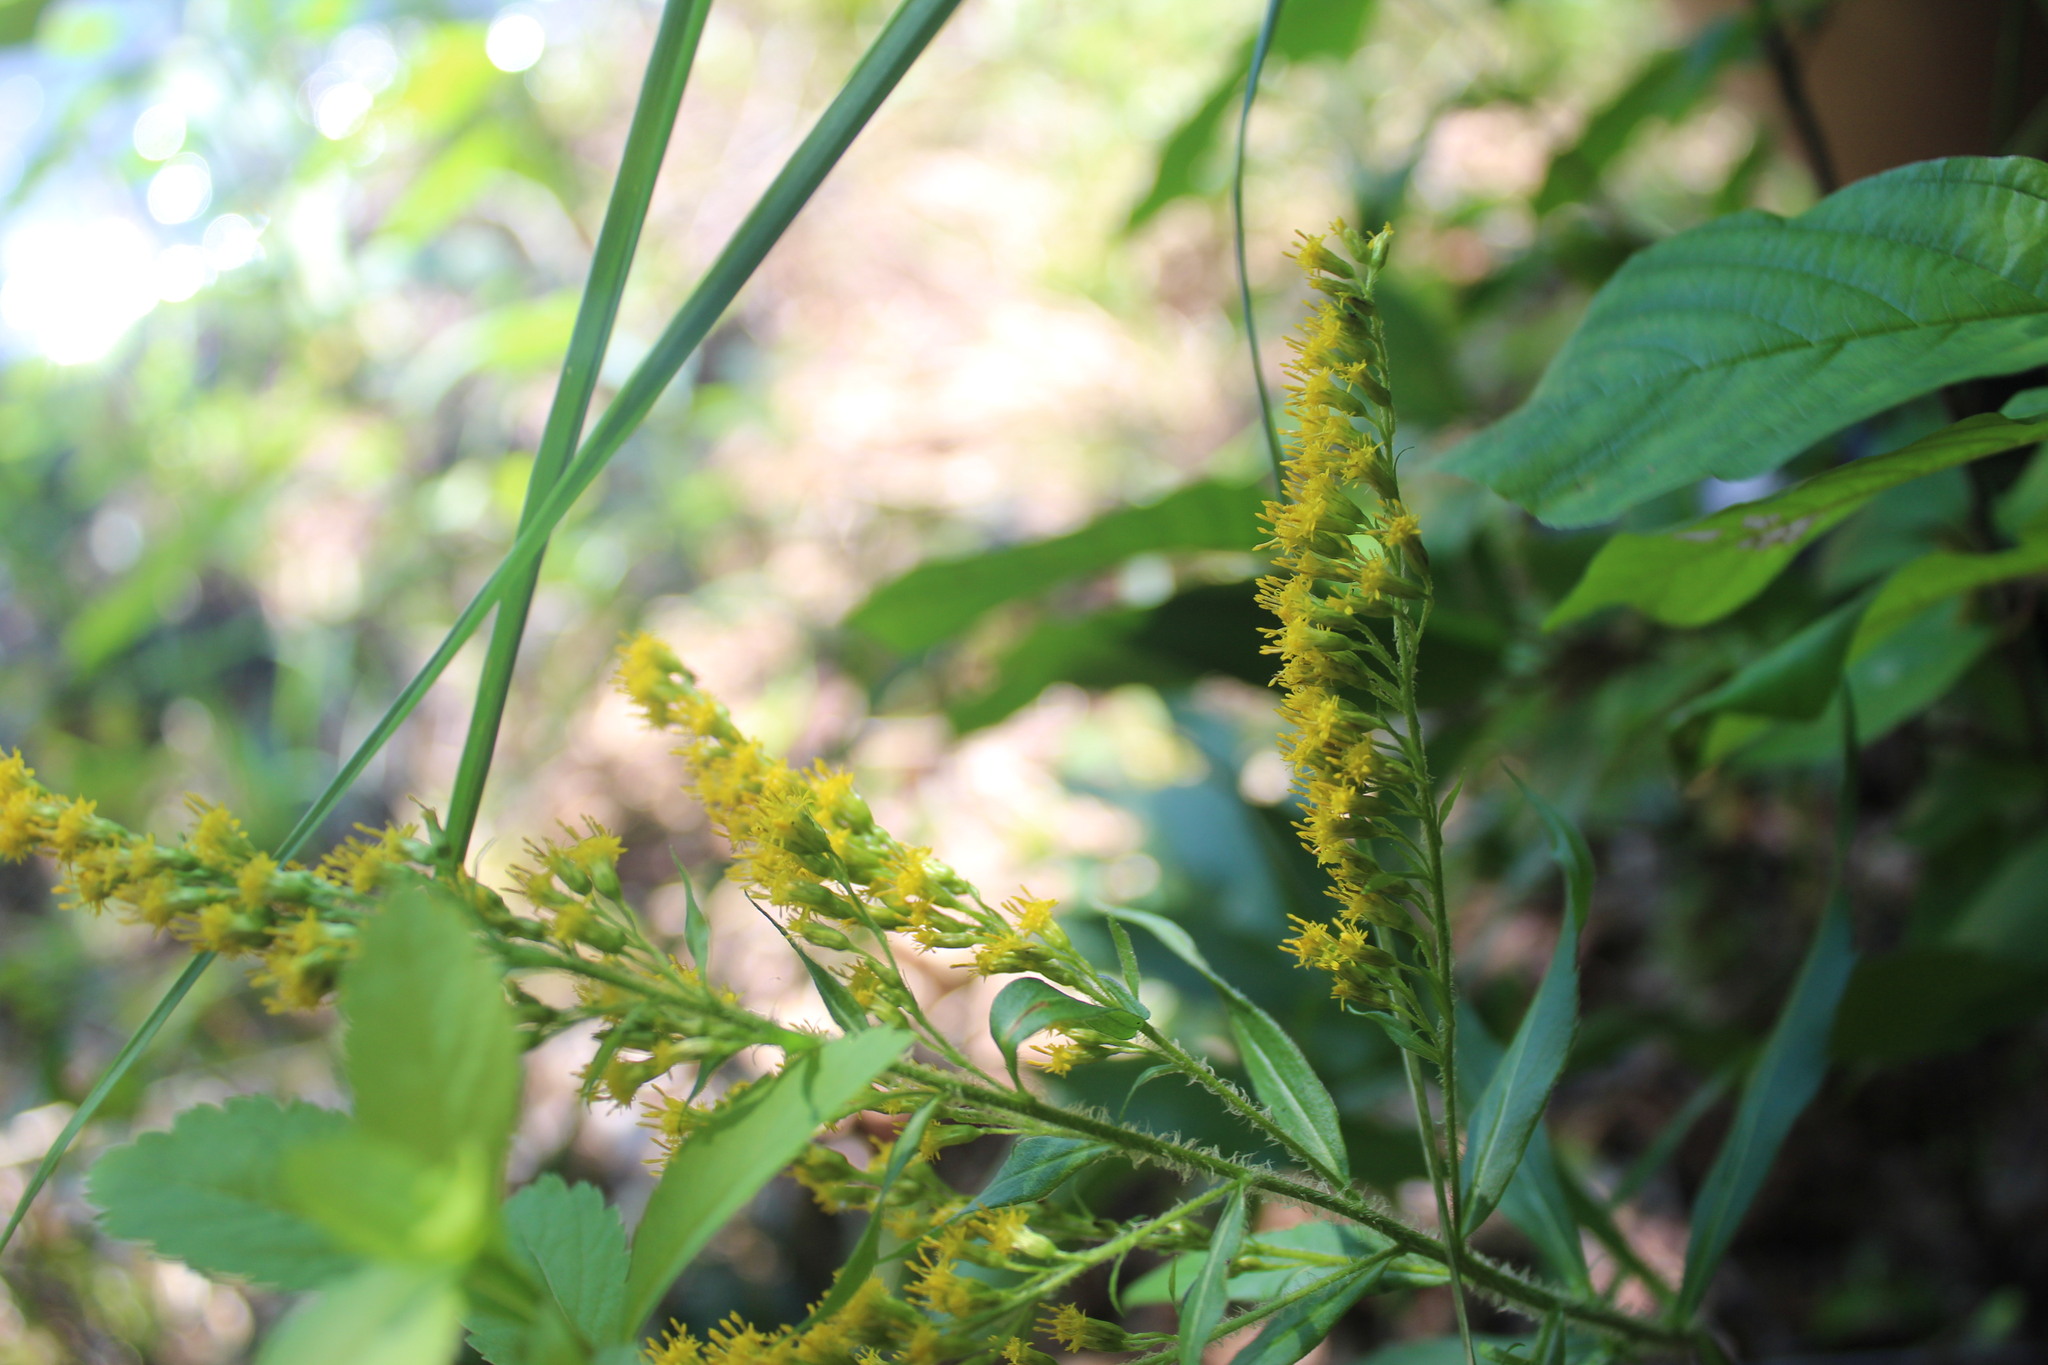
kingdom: Plantae
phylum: Tracheophyta
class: Magnoliopsida
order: Asterales
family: Asteraceae
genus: Solidago
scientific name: Solidago rugosa
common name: Rough-stemmed goldenrod
